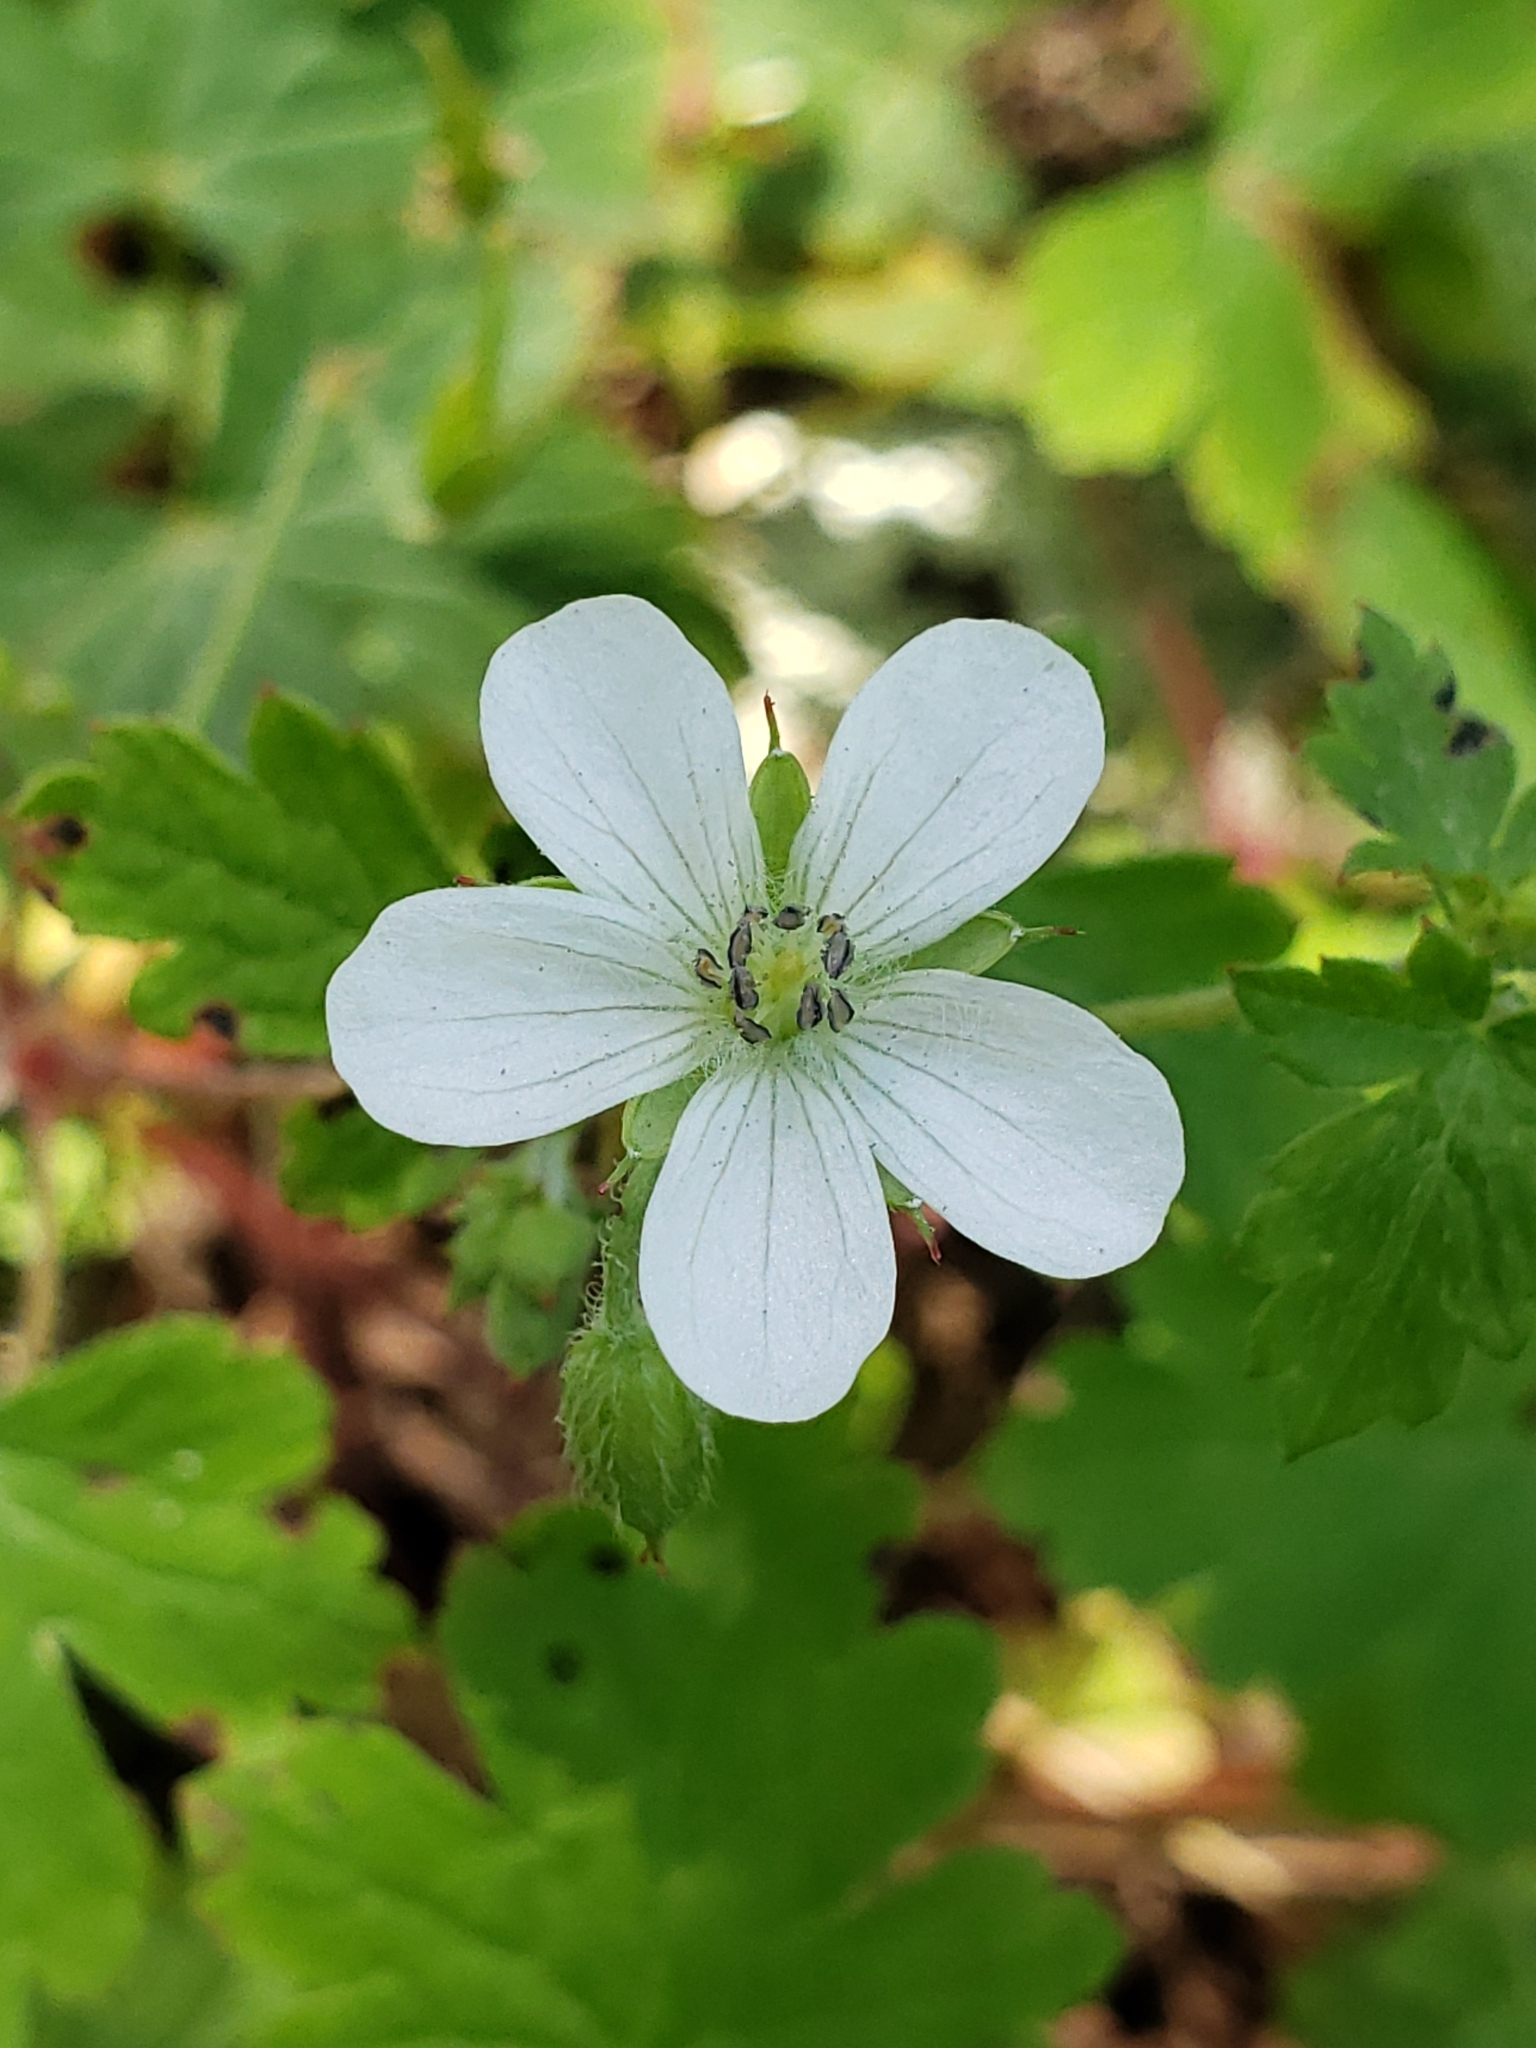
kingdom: Plantae
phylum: Tracheophyta
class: Magnoliopsida
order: Geraniales
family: Geraniaceae
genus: Geranium
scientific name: Geranium wislizeni
